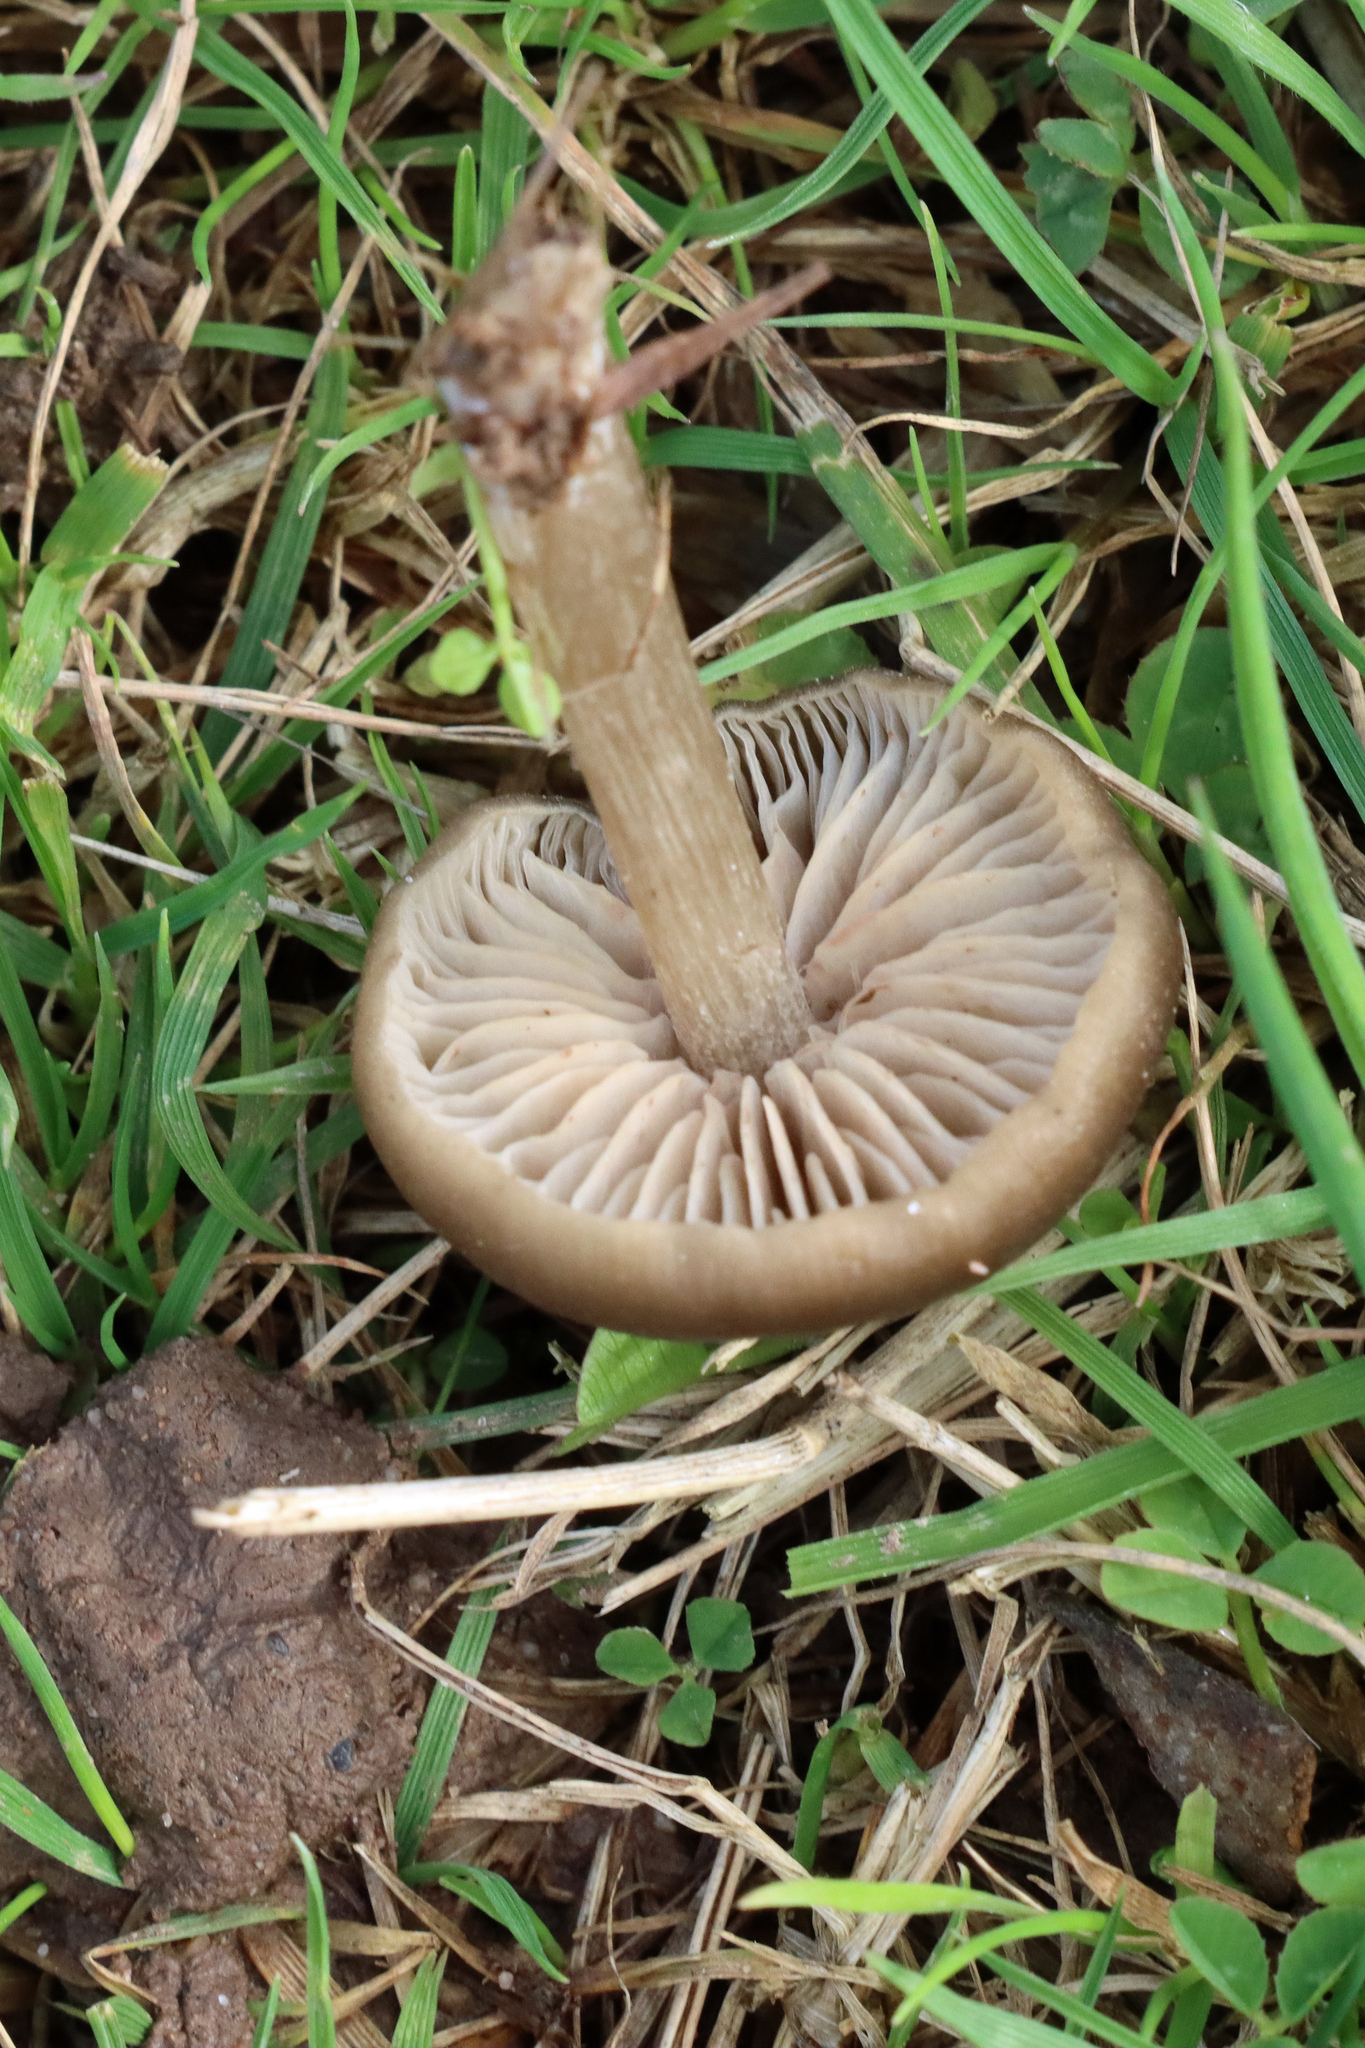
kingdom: Fungi
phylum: Basidiomycota
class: Agaricomycetes
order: Agaricales
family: Entolomataceae
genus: Entoloma
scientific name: Entoloma sericeum
